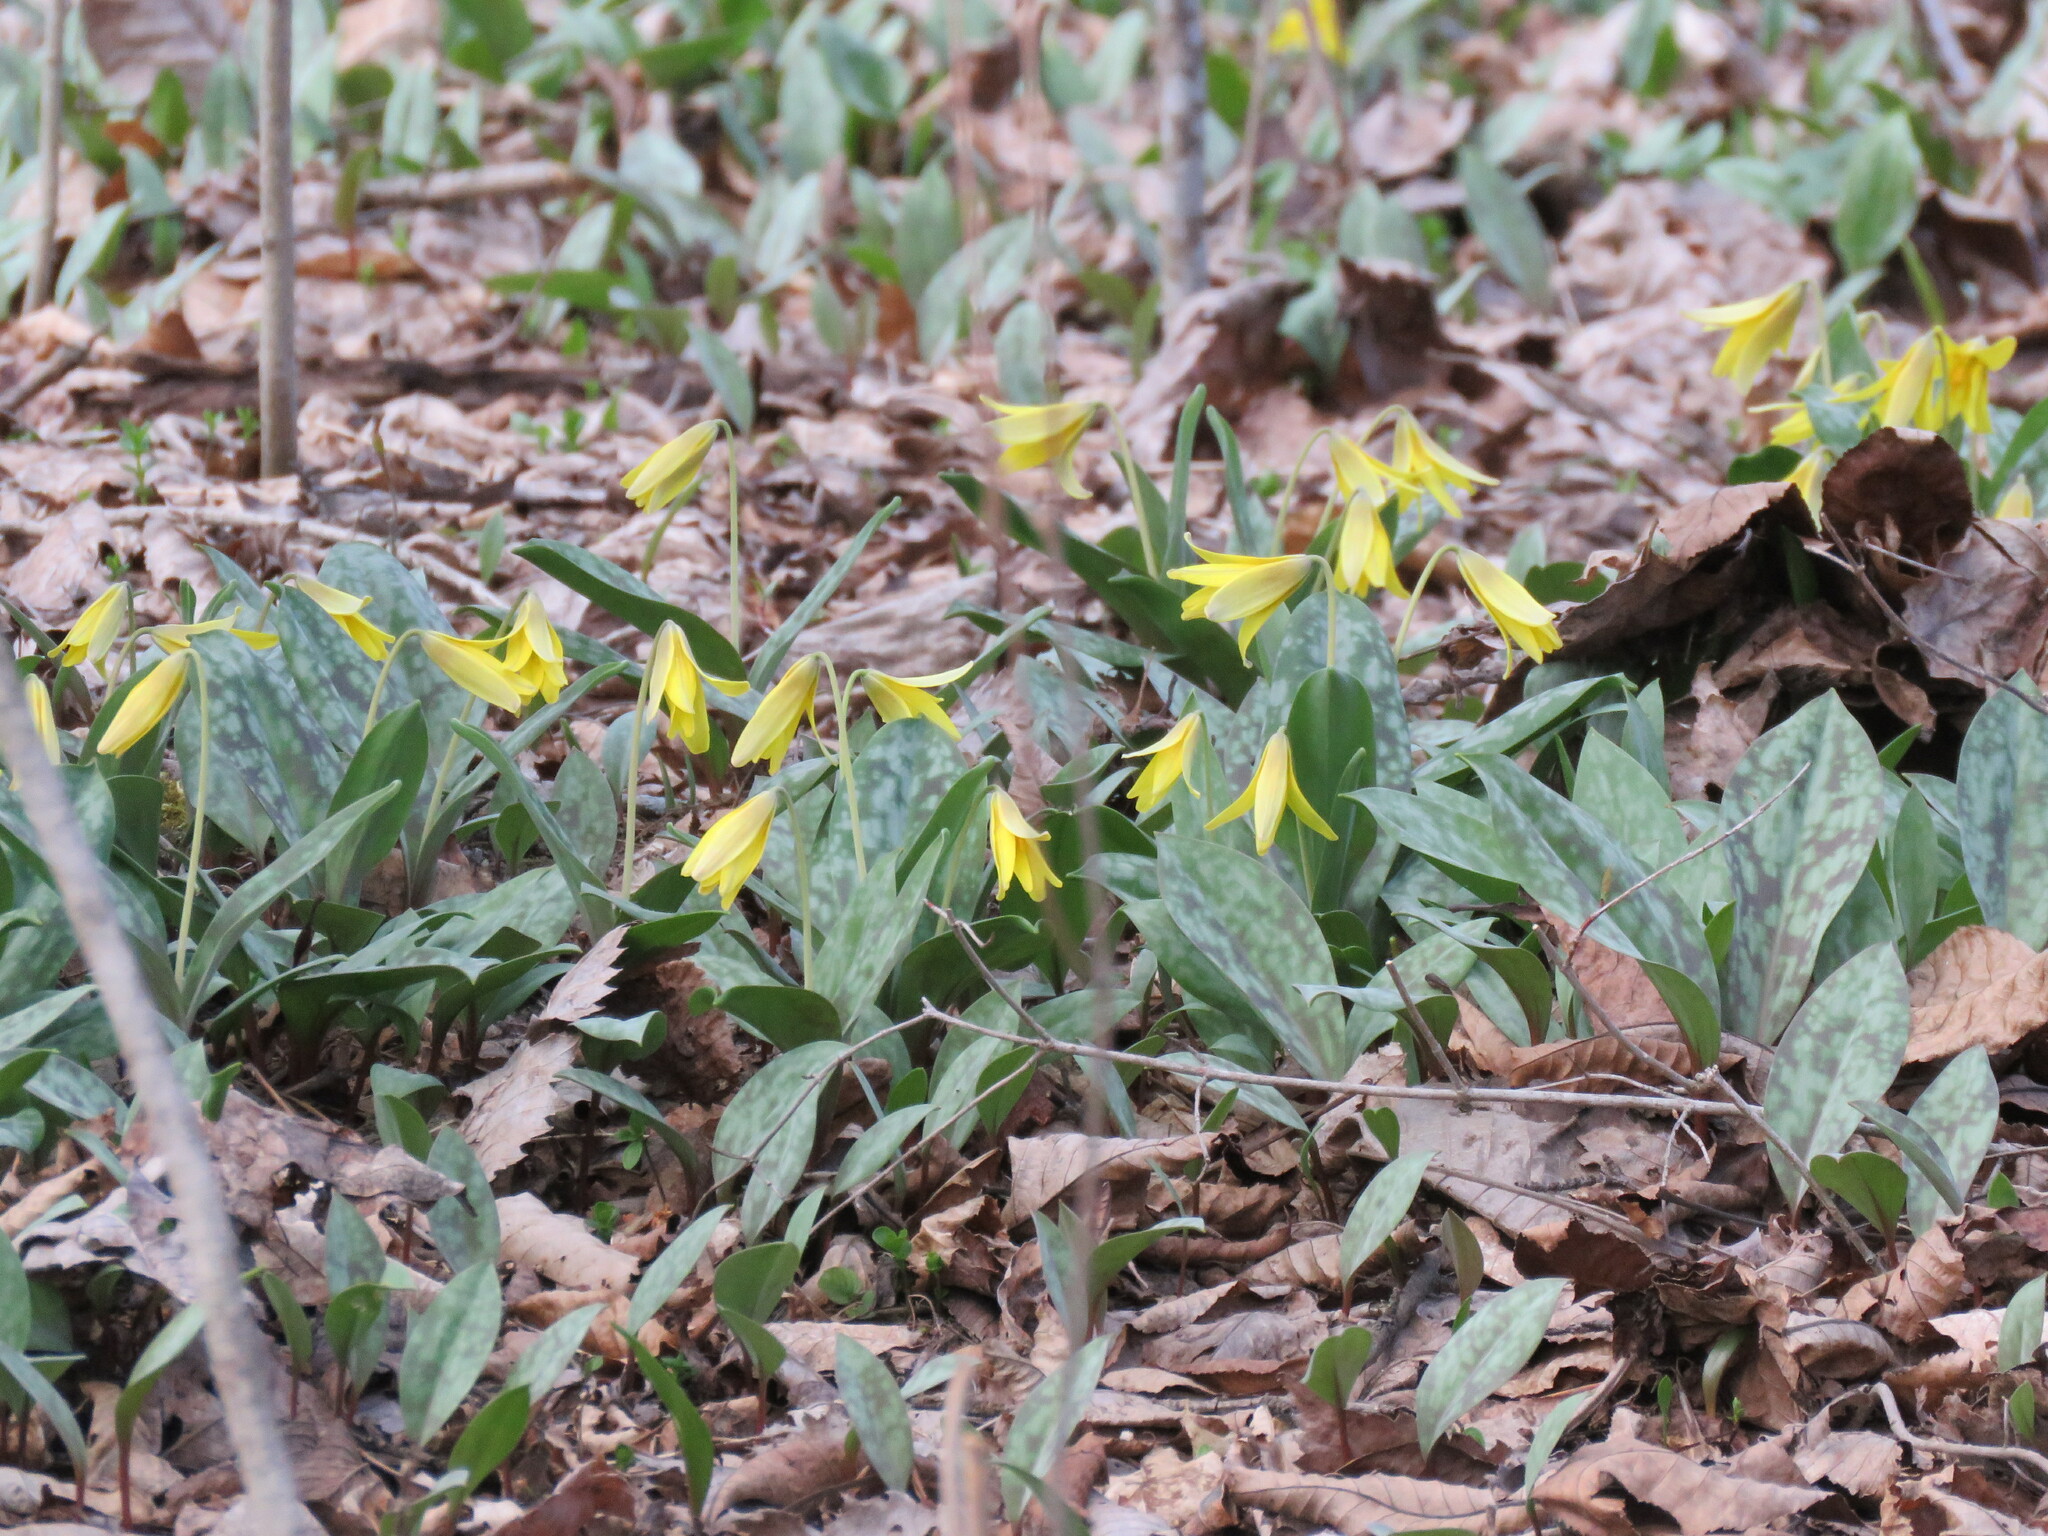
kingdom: Plantae
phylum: Tracheophyta
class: Liliopsida
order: Liliales
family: Liliaceae
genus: Erythronium
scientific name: Erythronium americanum
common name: Yellow adder's-tongue
